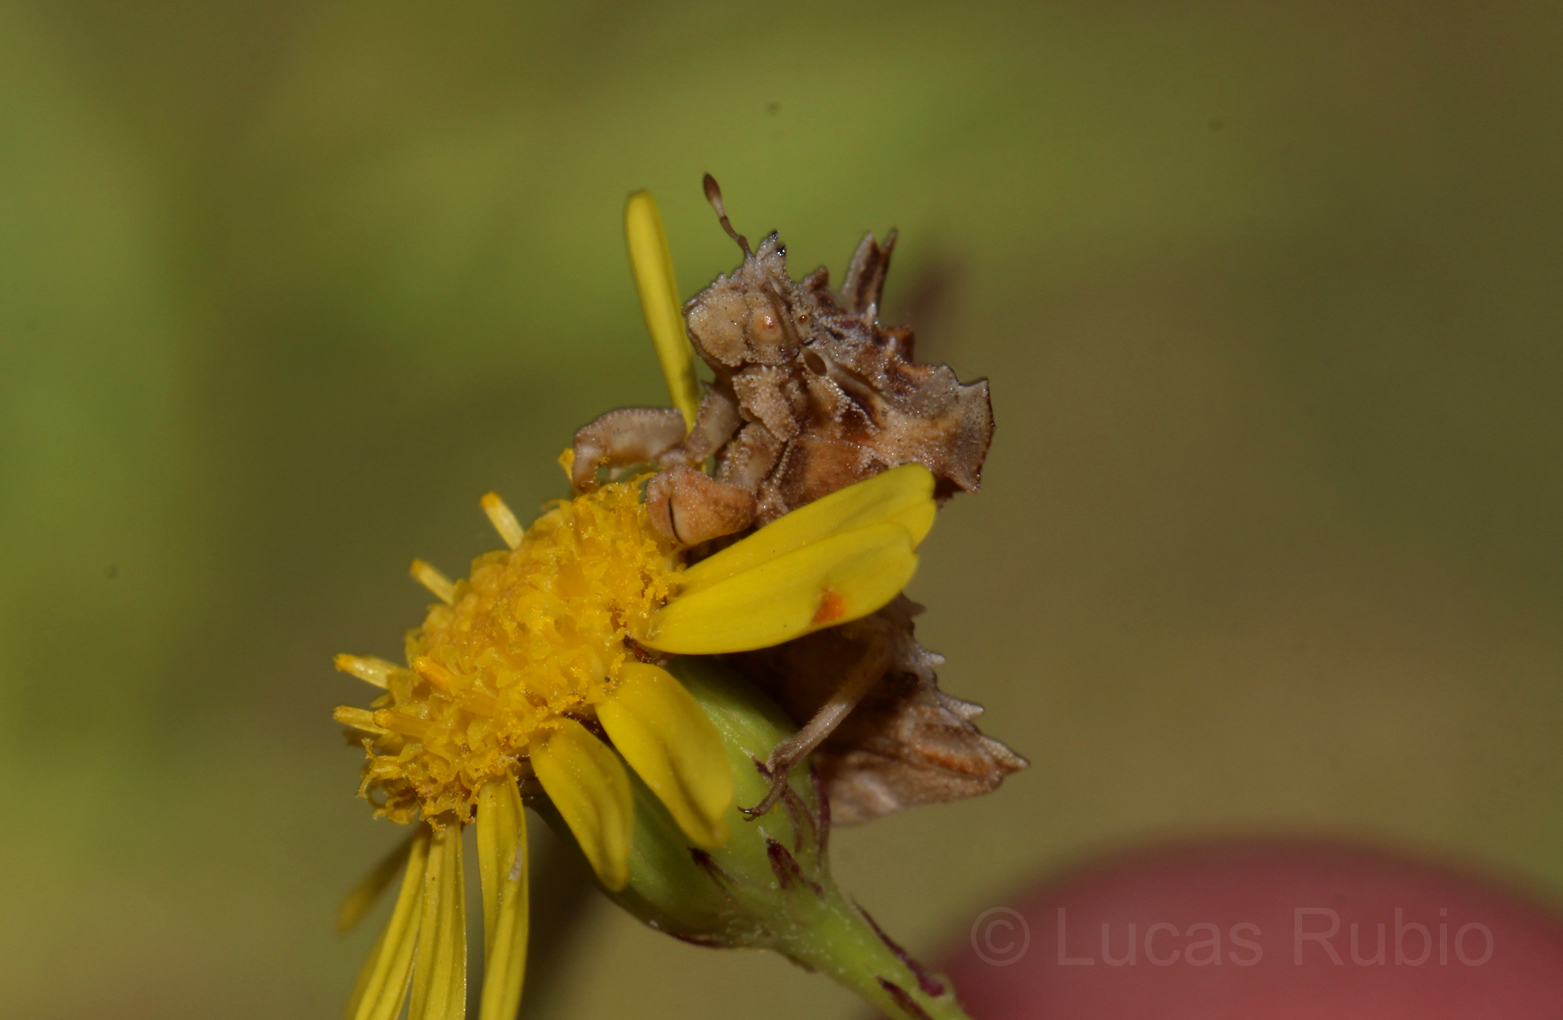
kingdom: Animalia
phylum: Arthropoda
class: Insecta
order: Hemiptera
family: Reduviidae
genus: Phymata
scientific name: Phymata fortificata
